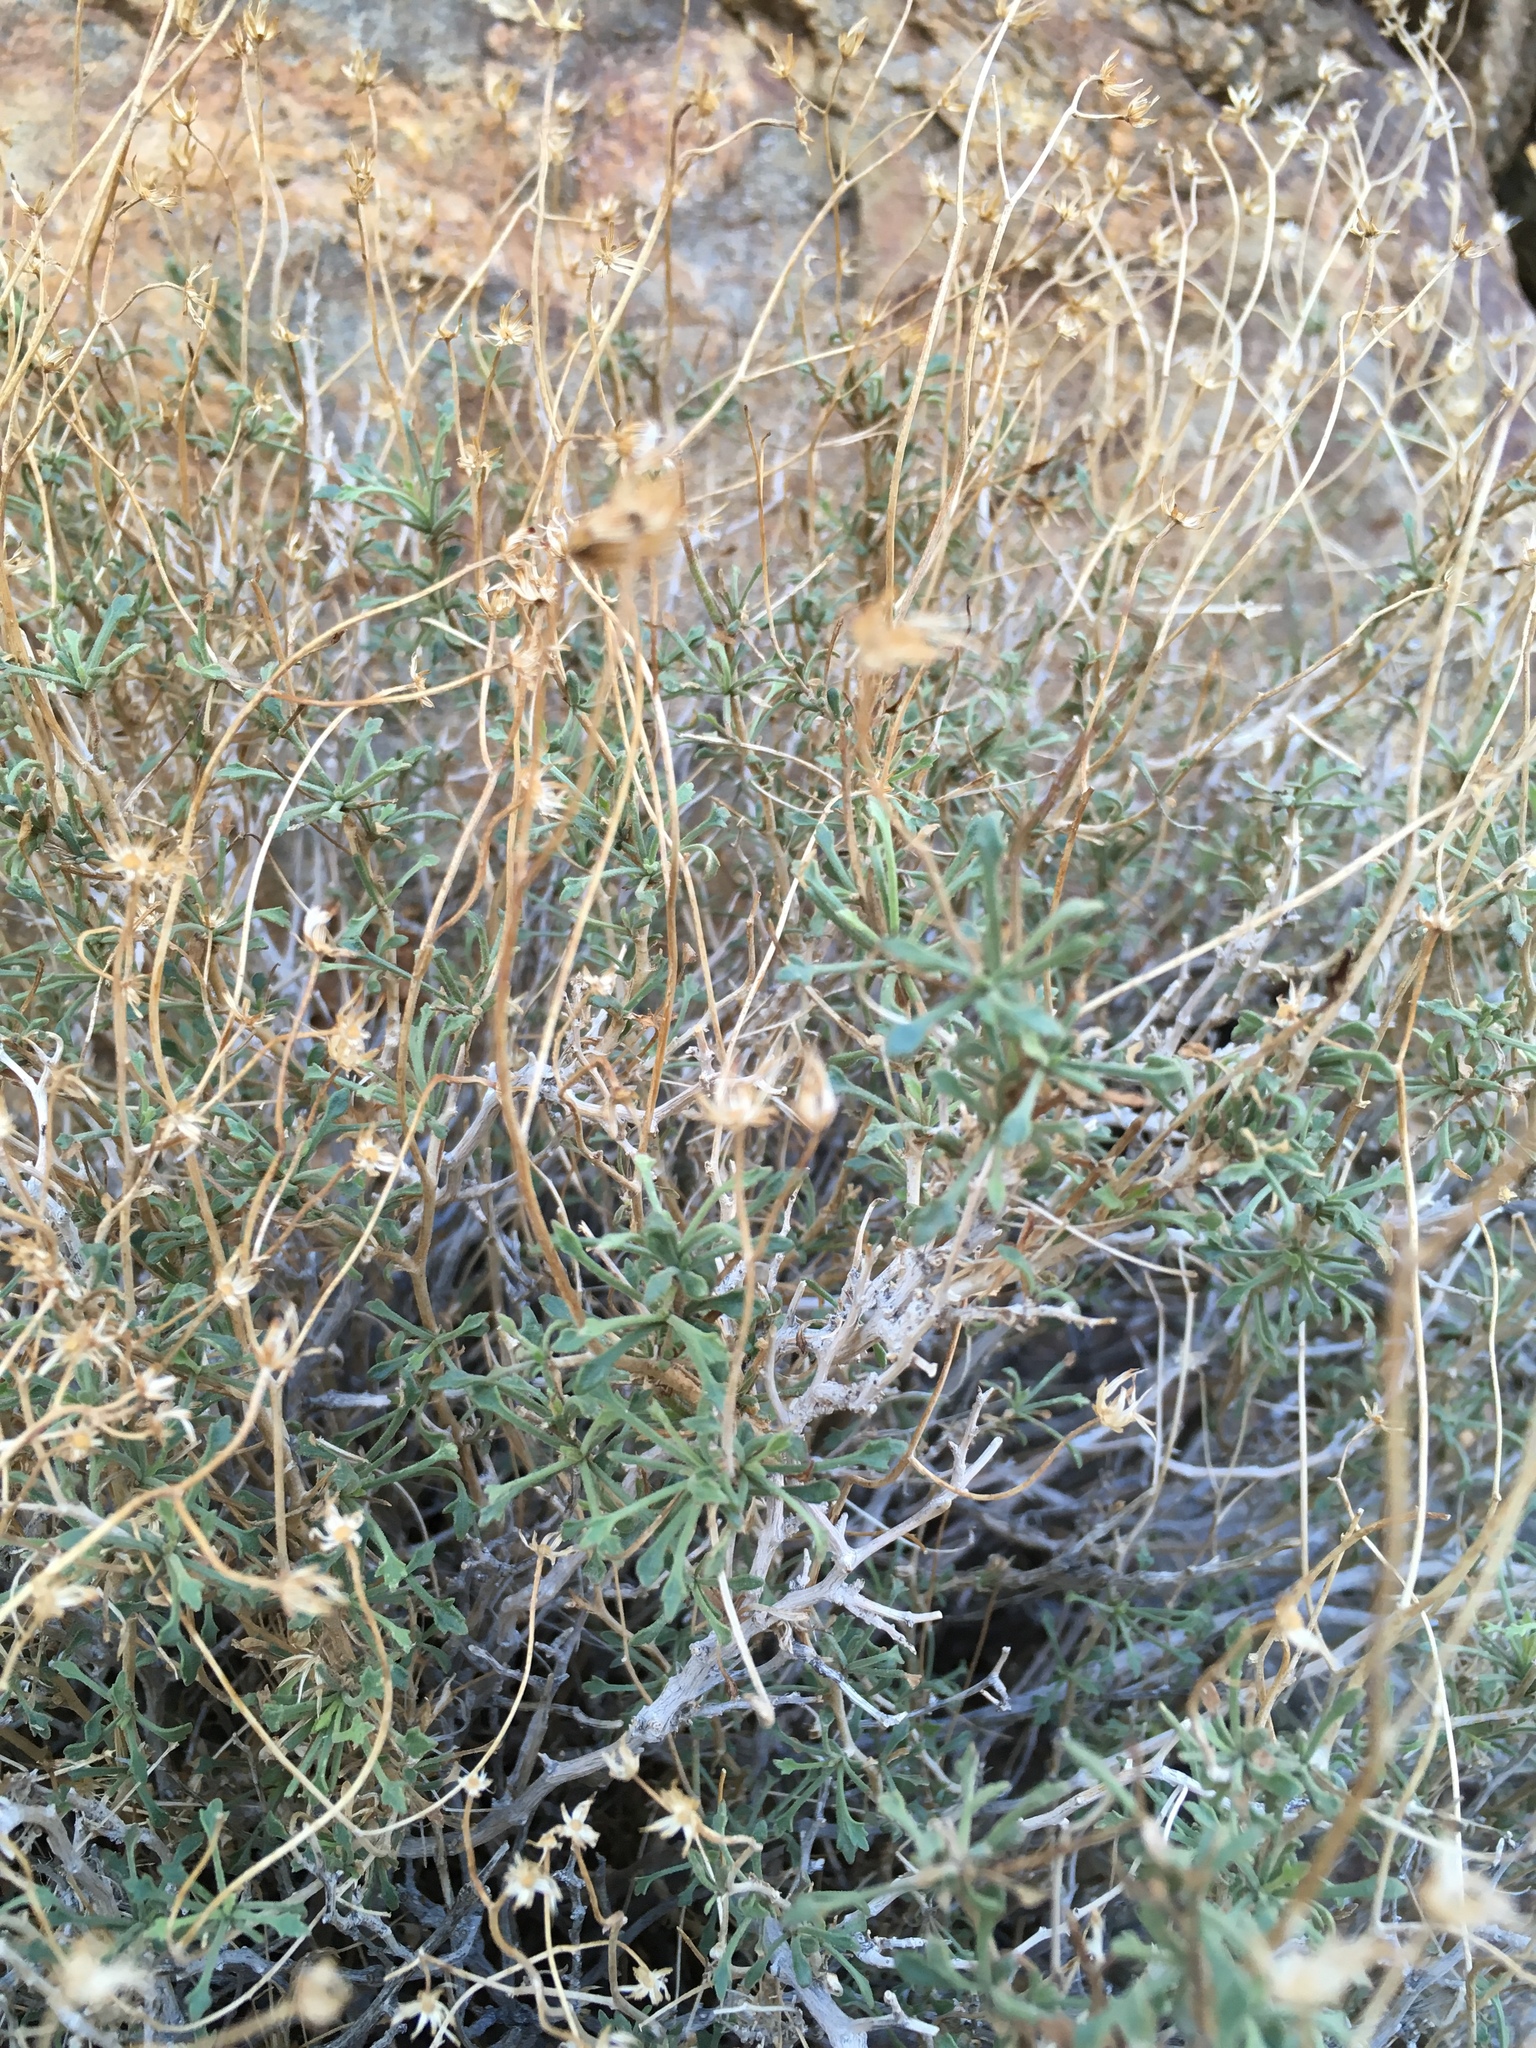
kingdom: Plantae
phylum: Tracheophyta
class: Magnoliopsida
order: Asterales
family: Asteraceae
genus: Pleurocoronis
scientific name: Pleurocoronis pluriseta
